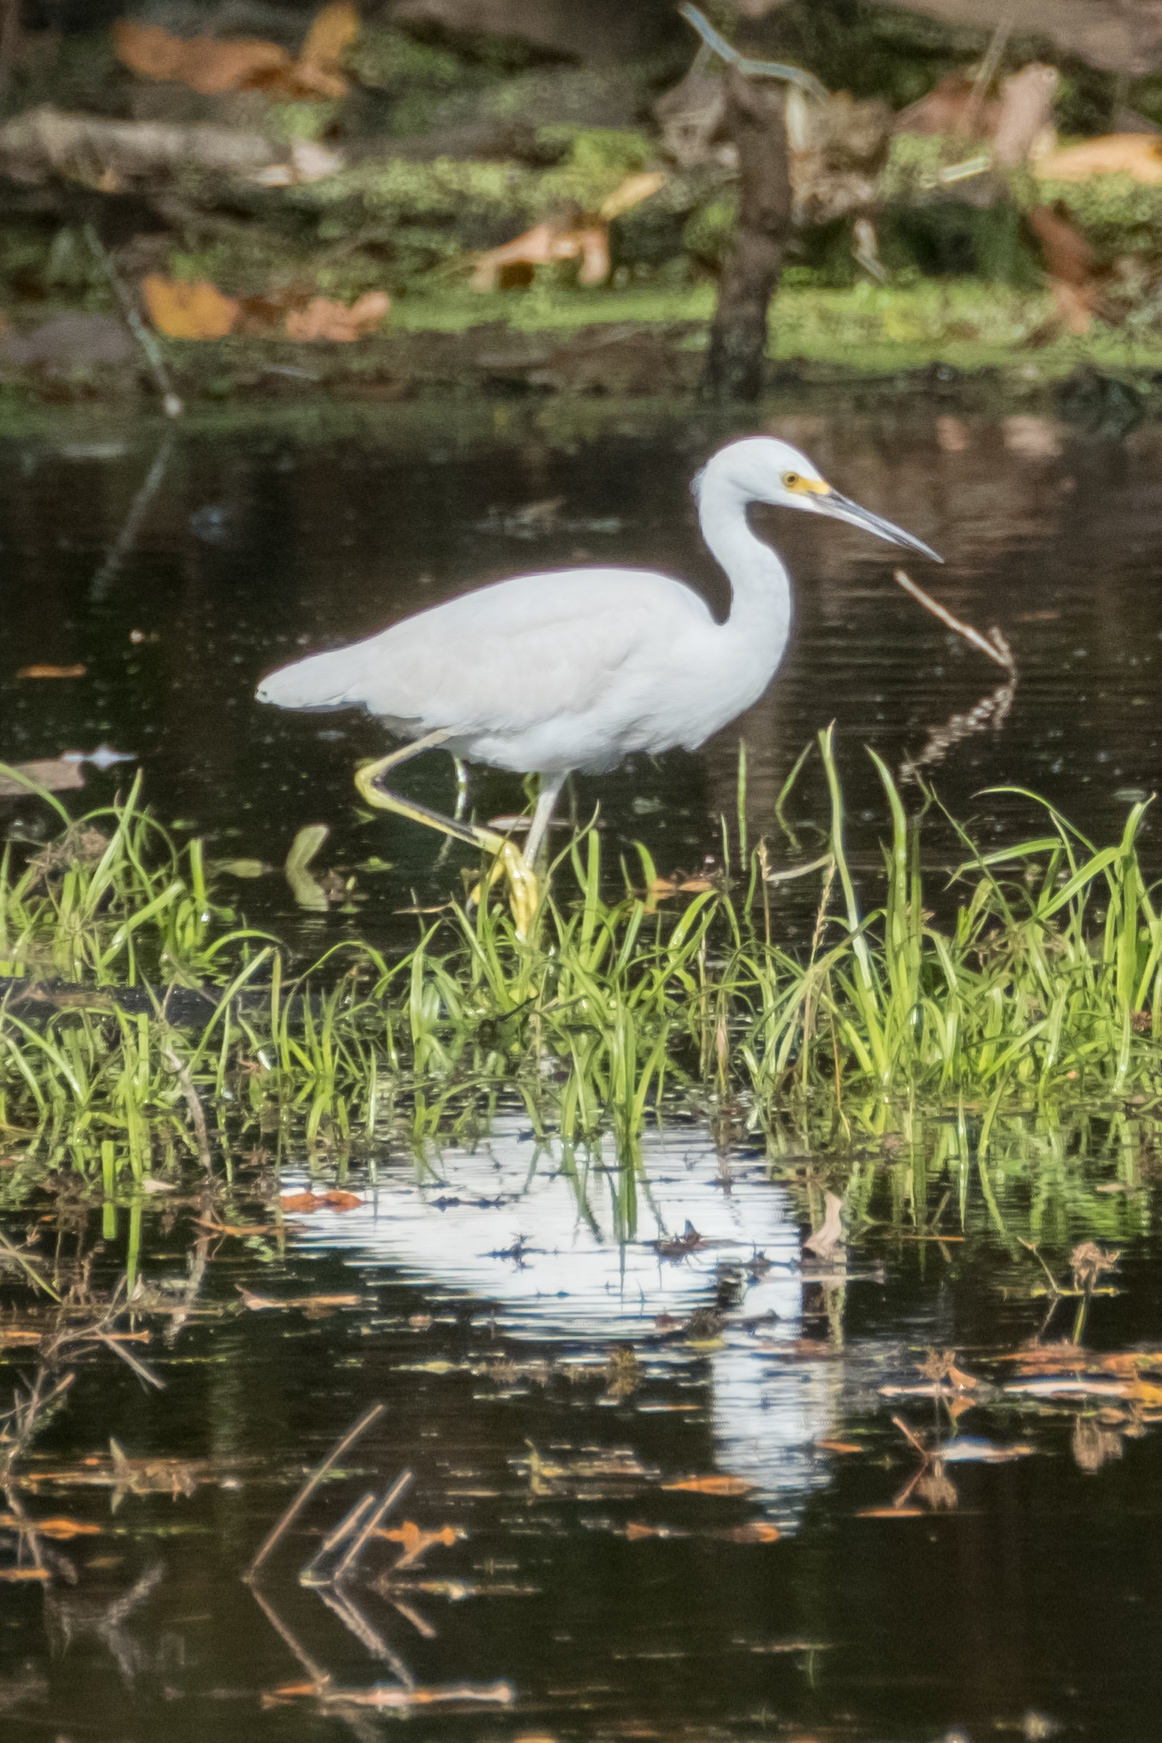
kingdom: Animalia
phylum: Chordata
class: Aves
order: Pelecaniformes
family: Ardeidae
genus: Egretta
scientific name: Egretta thula
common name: Snowy egret
